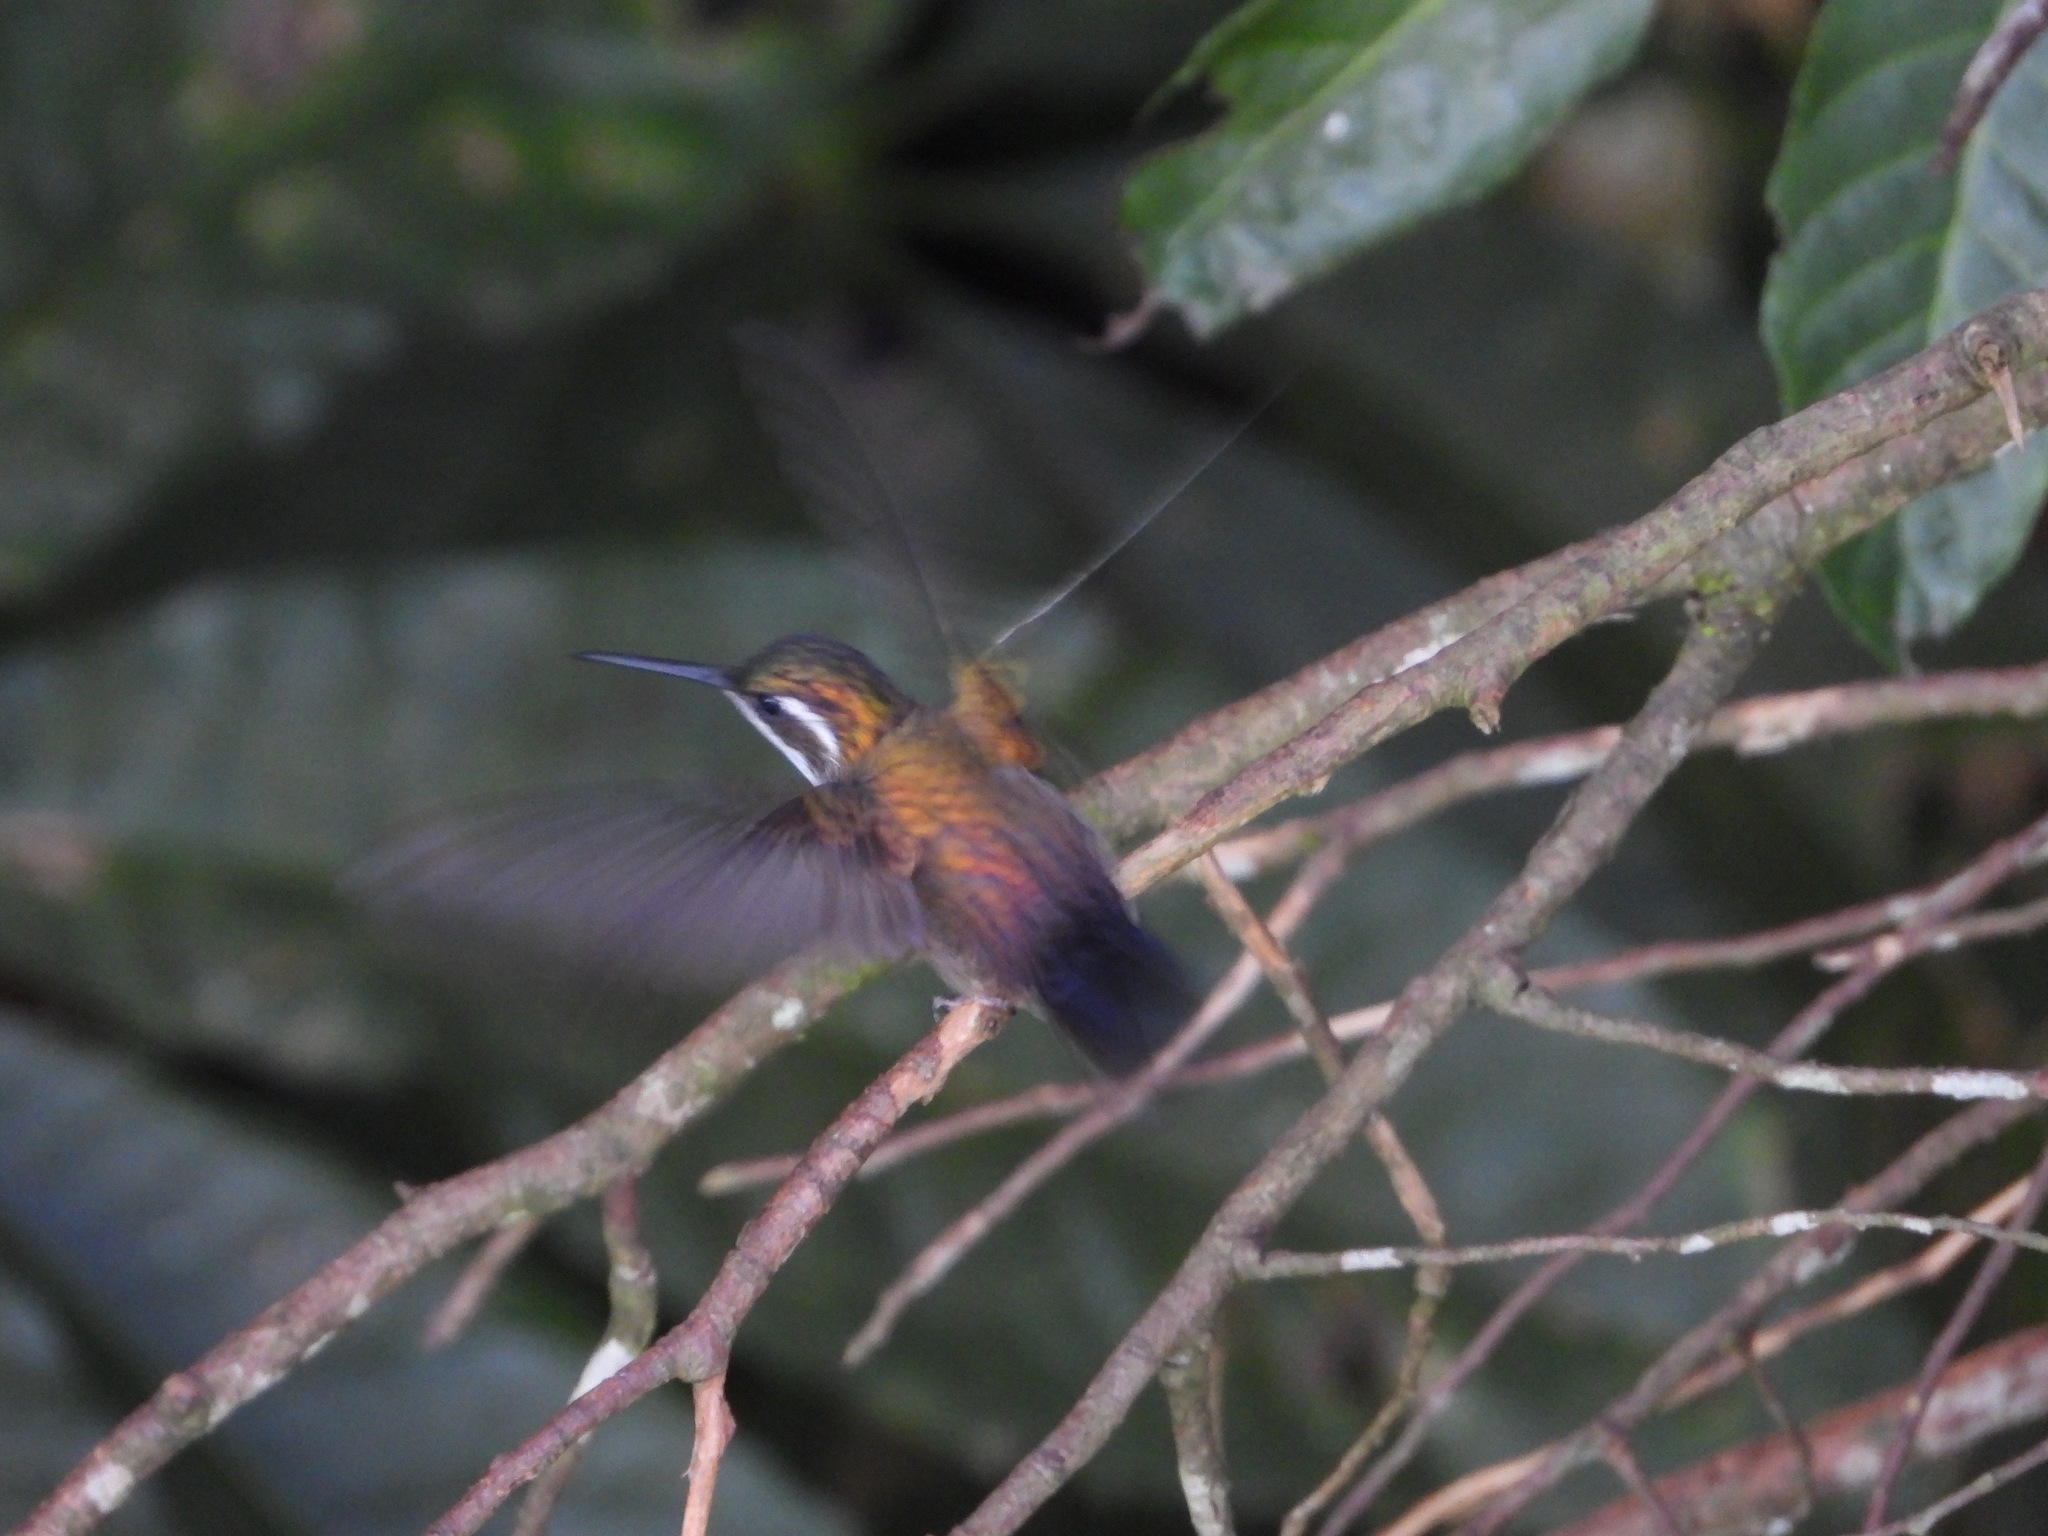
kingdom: Animalia
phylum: Chordata
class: Aves
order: Apodiformes
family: Trochilidae
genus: Lampornis
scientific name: Lampornis viridipallens
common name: Green-throated mountain-gem
